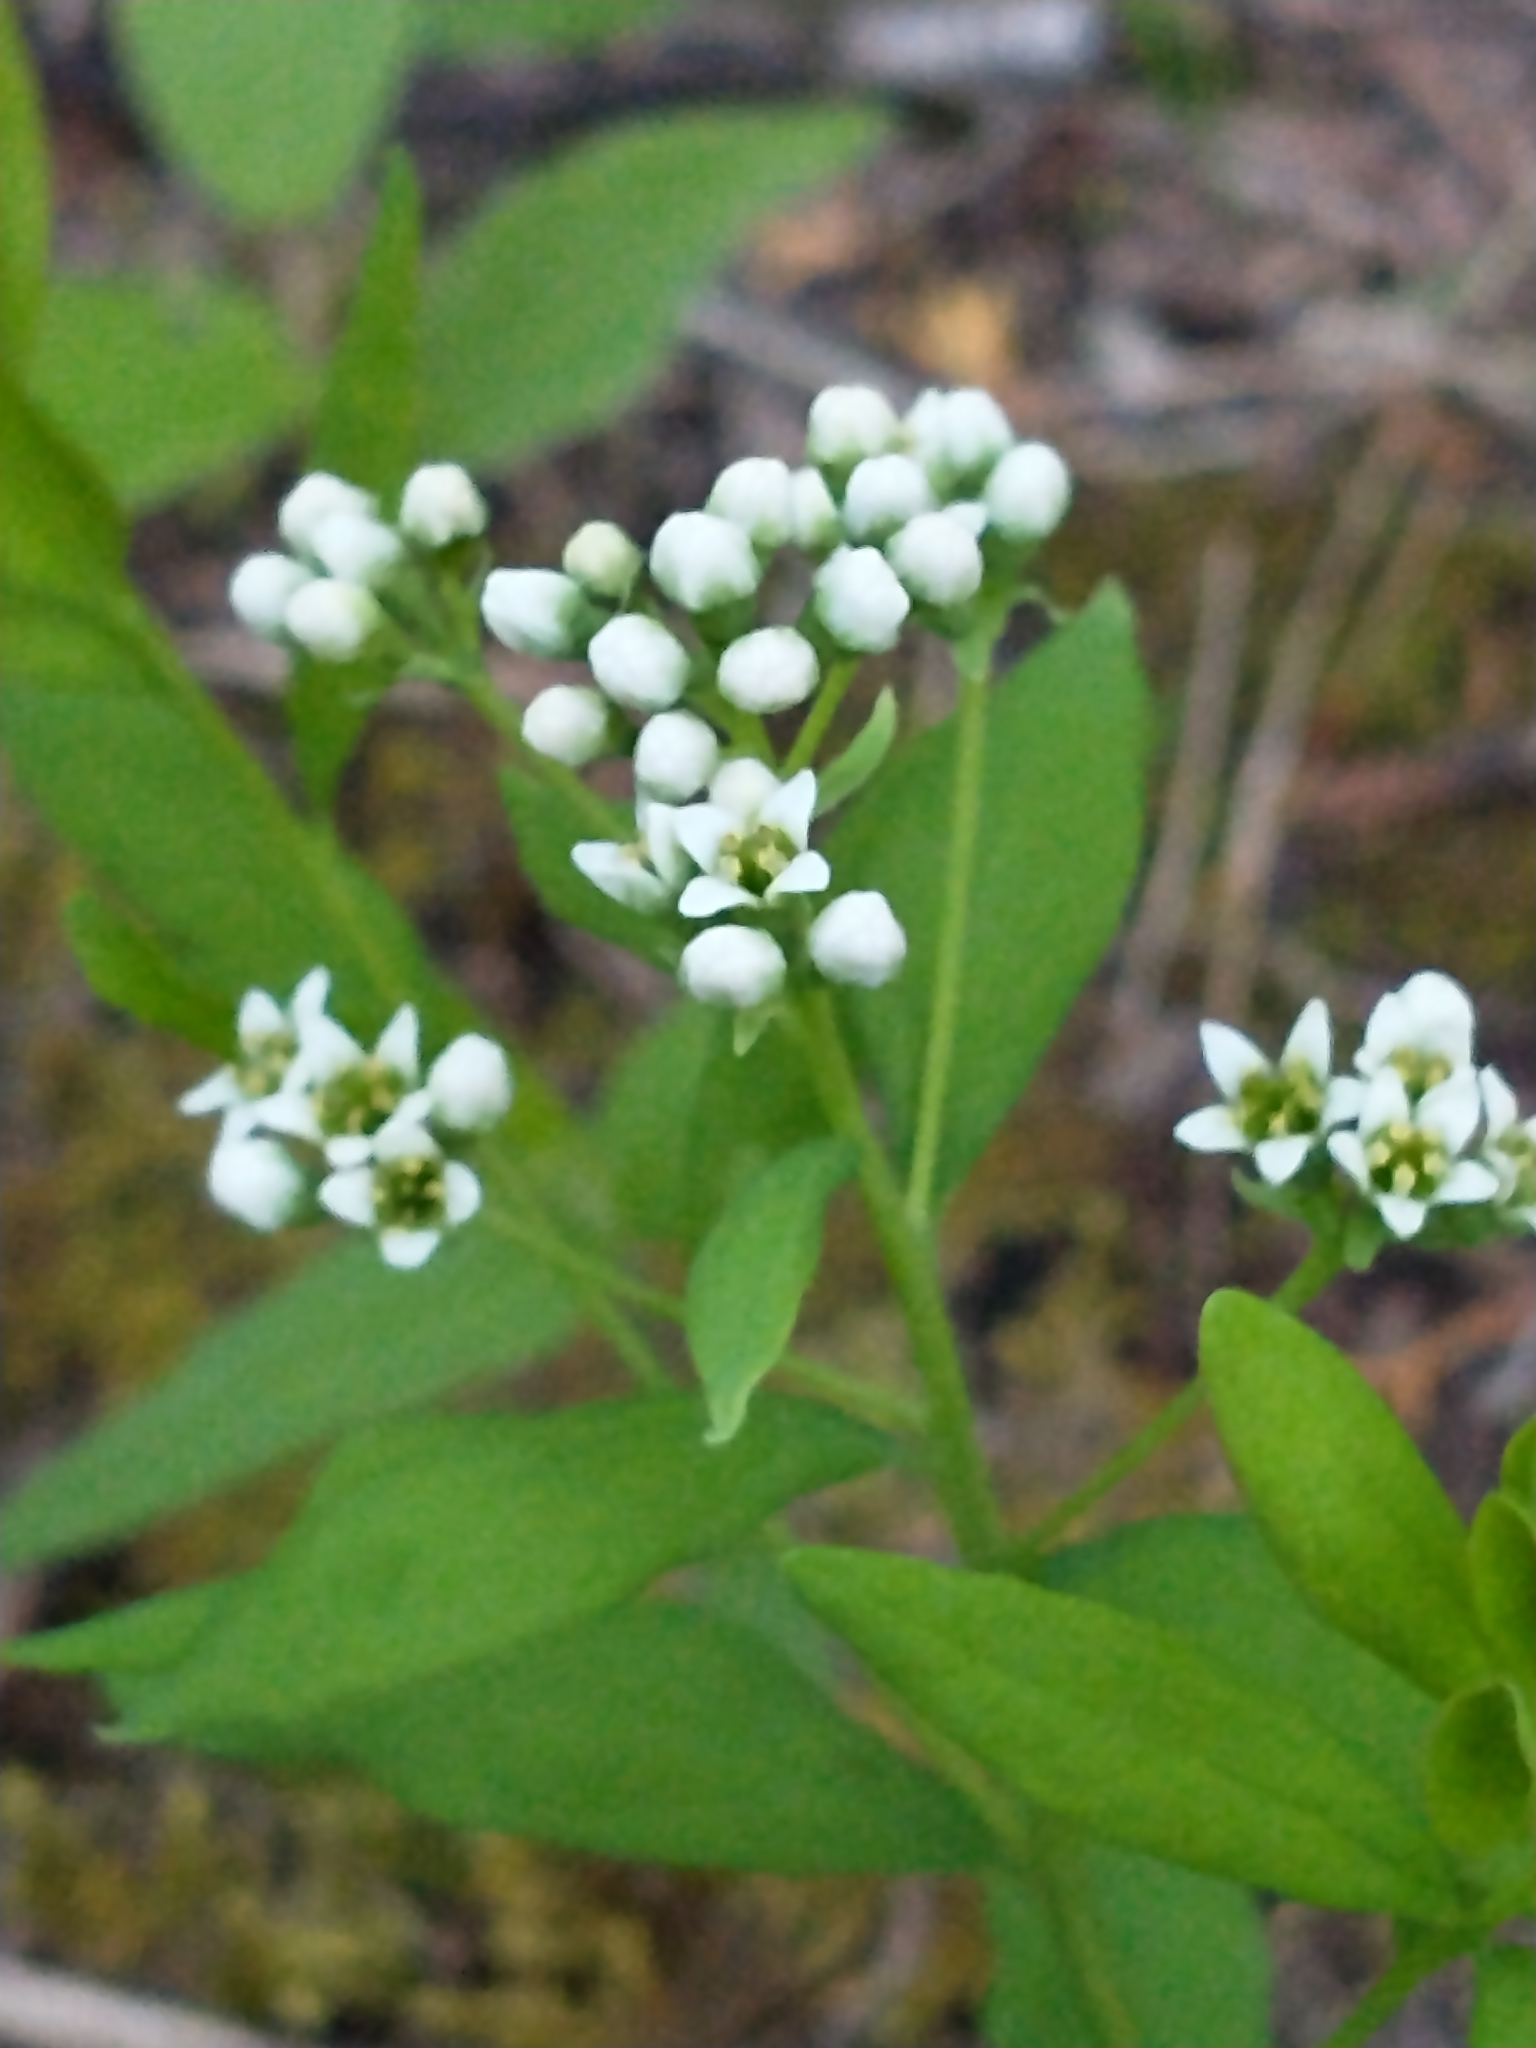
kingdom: Plantae
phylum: Tracheophyta
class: Magnoliopsida
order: Santalales
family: Comandraceae
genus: Comandra
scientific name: Comandra umbellata
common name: Bastard toadflax
